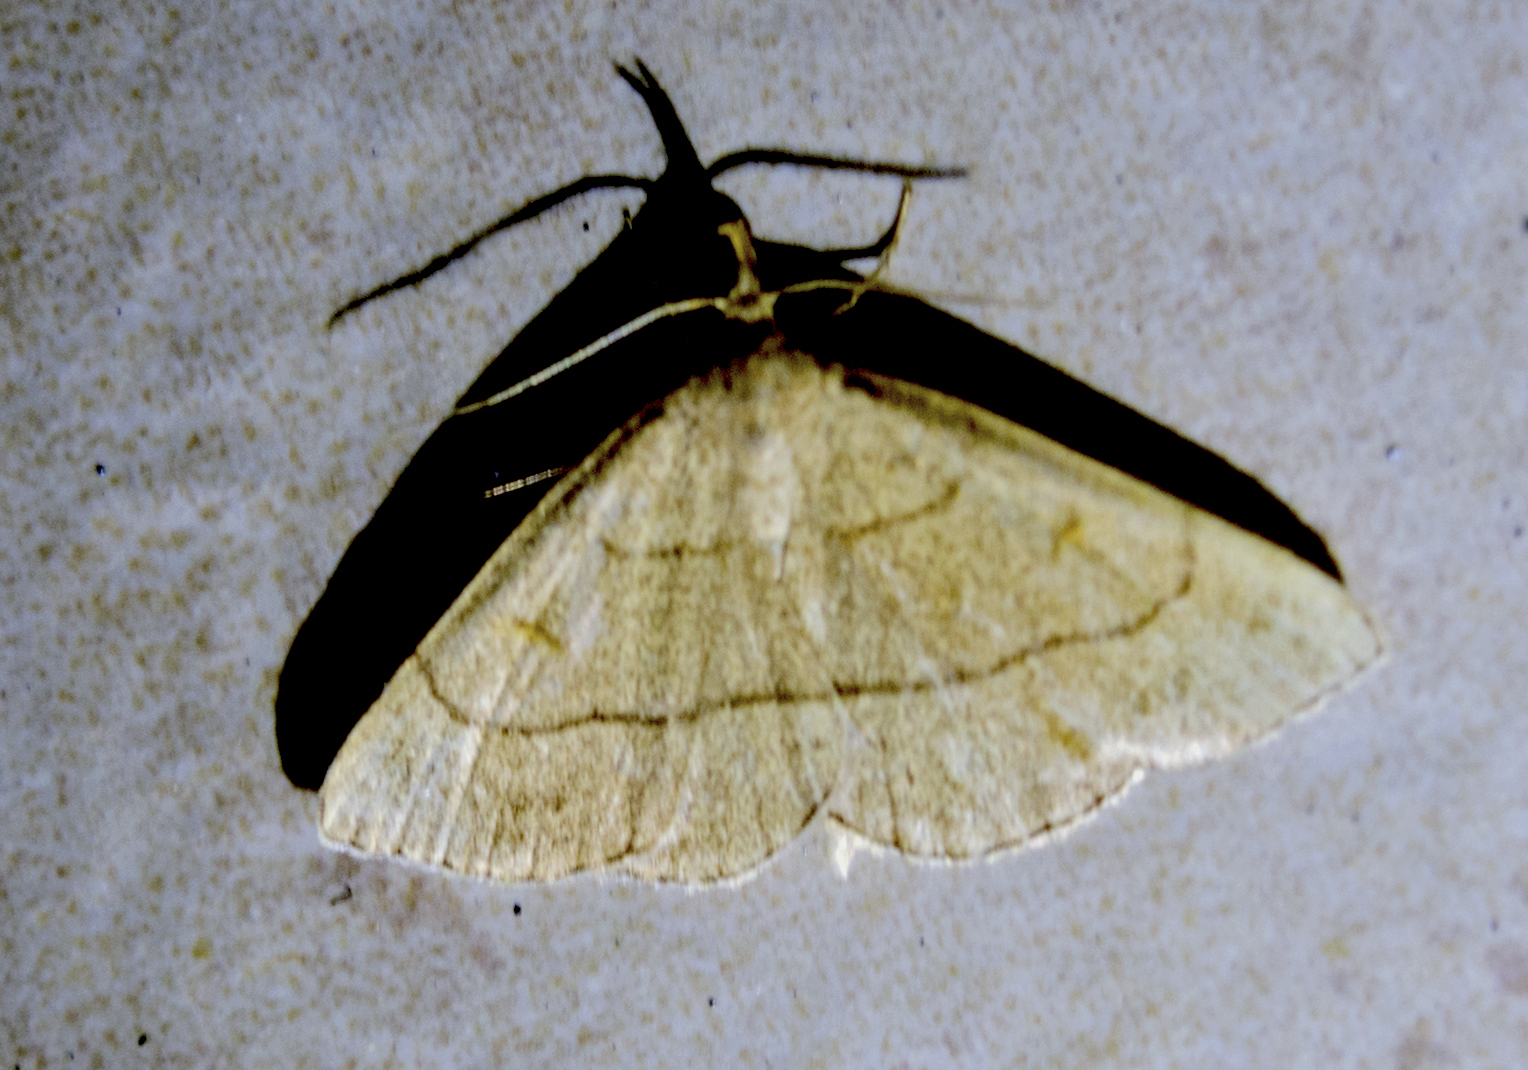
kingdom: Animalia
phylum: Arthropoda
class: Insecta
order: Lepidoptera
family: Erebidae
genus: Paracolax
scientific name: Paracolax tristalis
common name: Clay fan-foot
